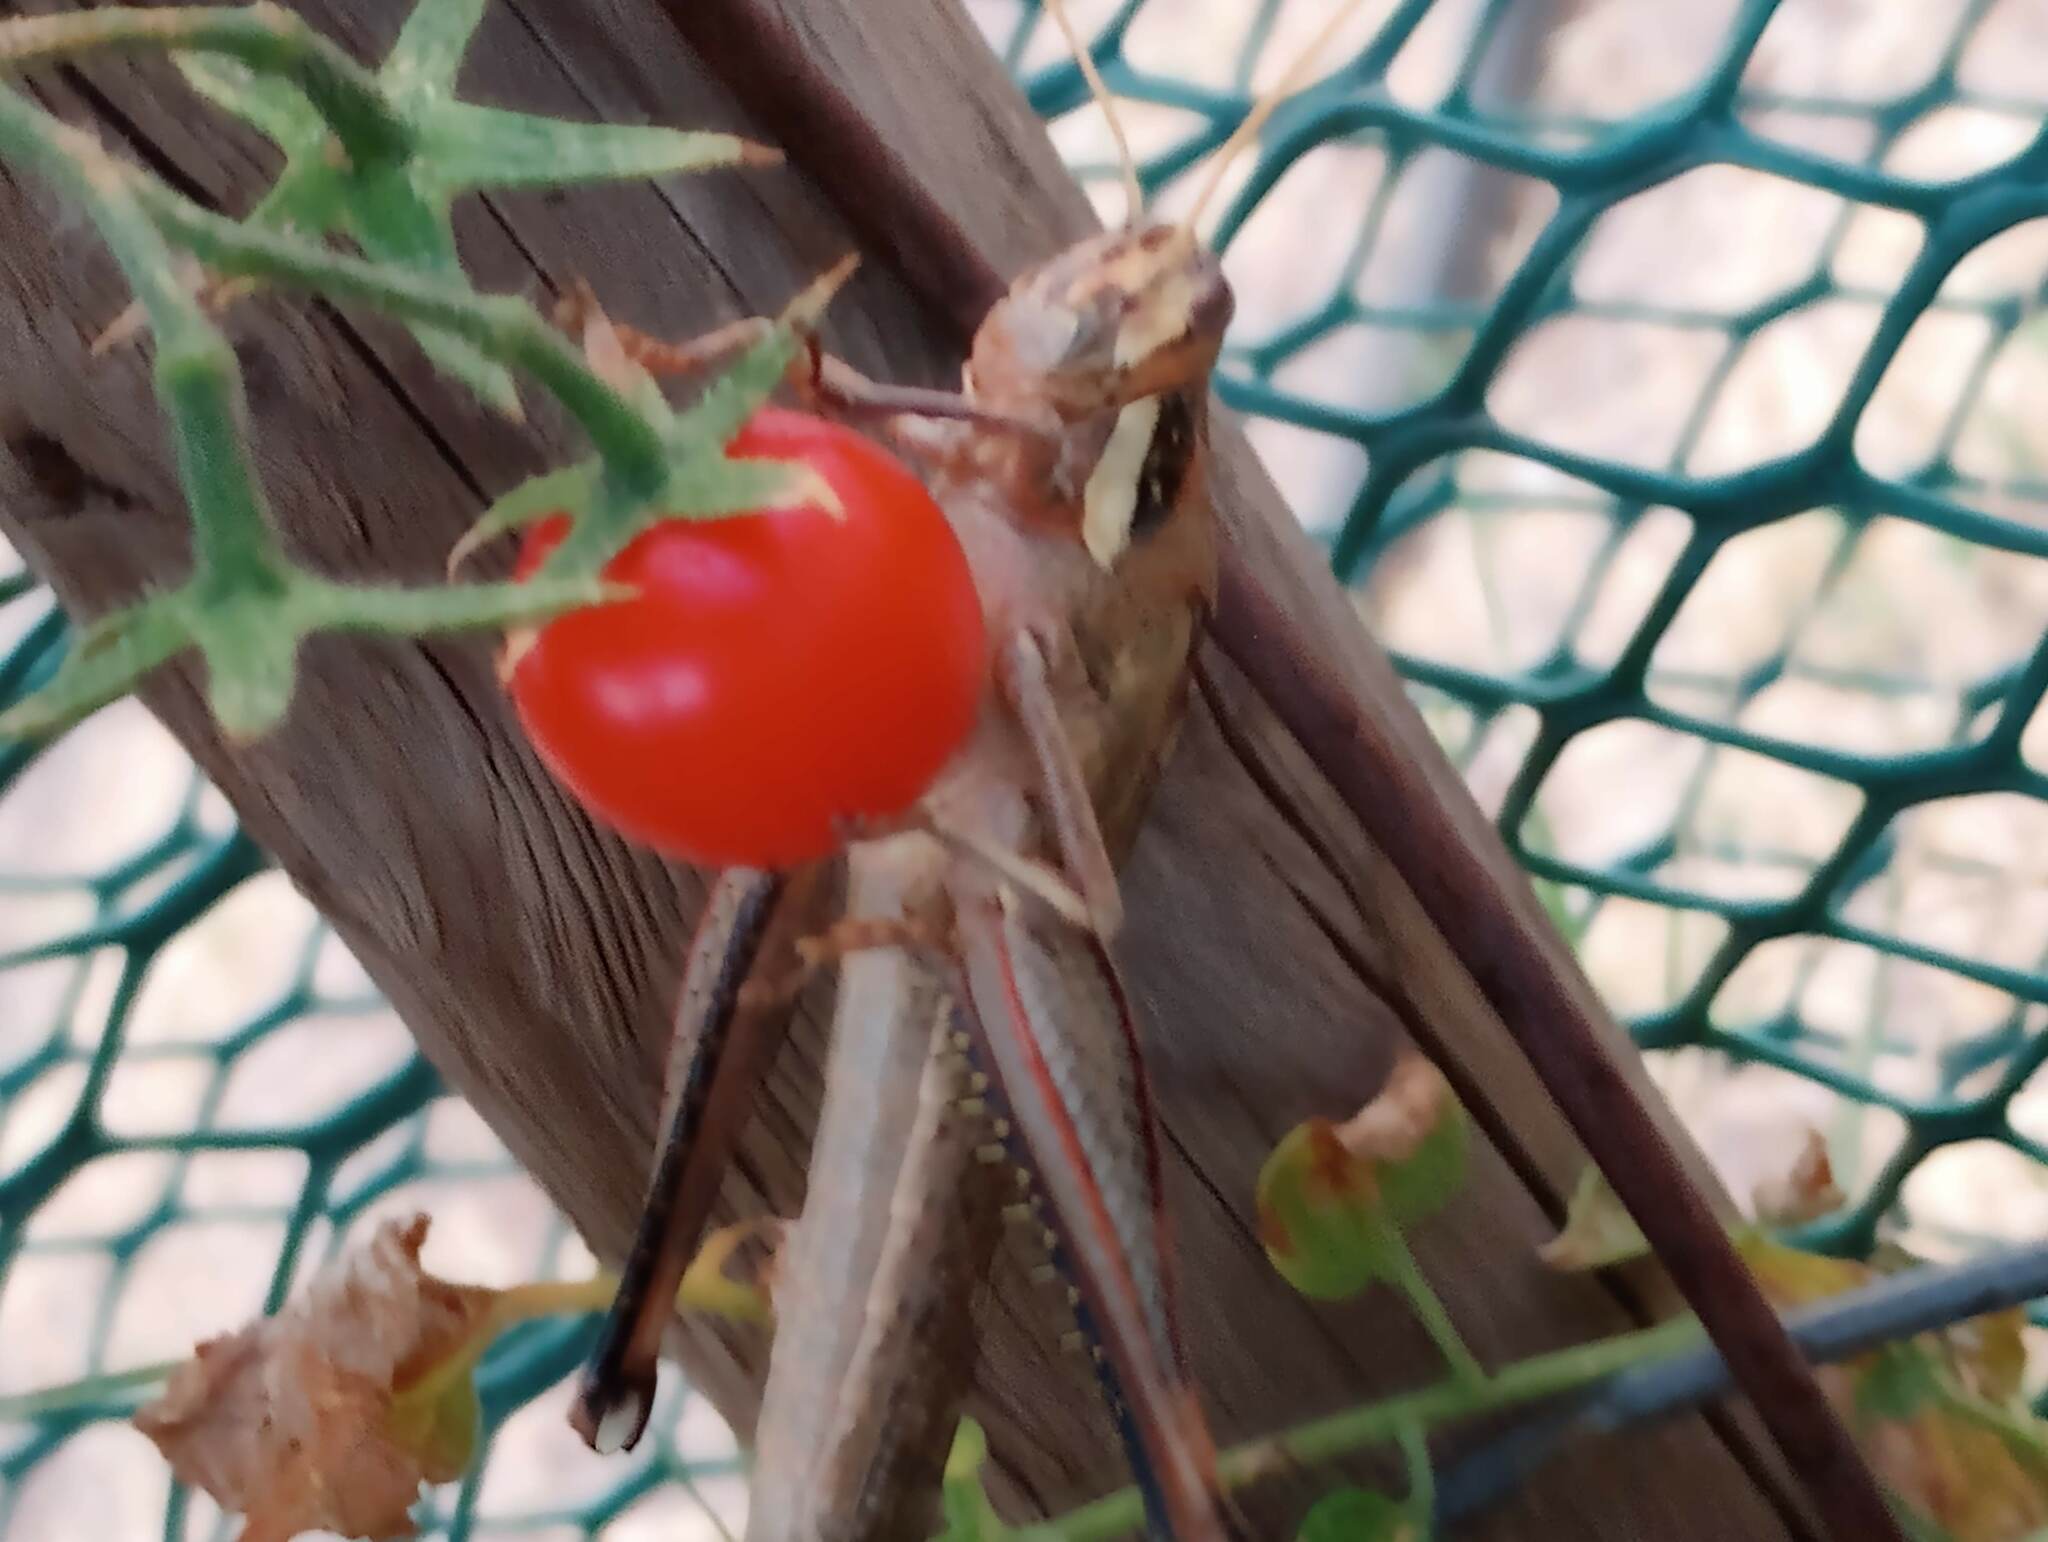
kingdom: Animalia
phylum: Arthropoda
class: Insecta
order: Orthoptera
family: Acrididae
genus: Schistocerca
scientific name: Schistocerca nitens
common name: Vagrant grasshopper
